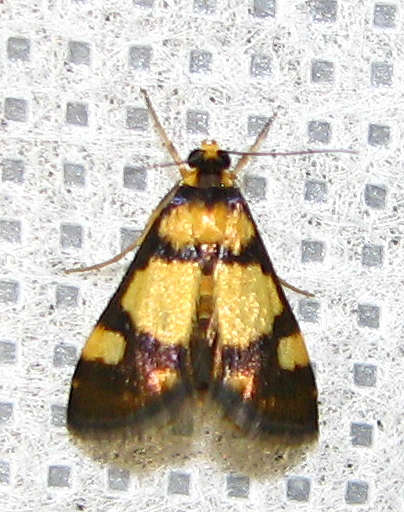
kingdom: Animalia
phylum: Arthropoda
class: Insecta
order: Lepidoptera
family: Crambidae
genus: Deuterarcha
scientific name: Deuterarcha xanthomela
